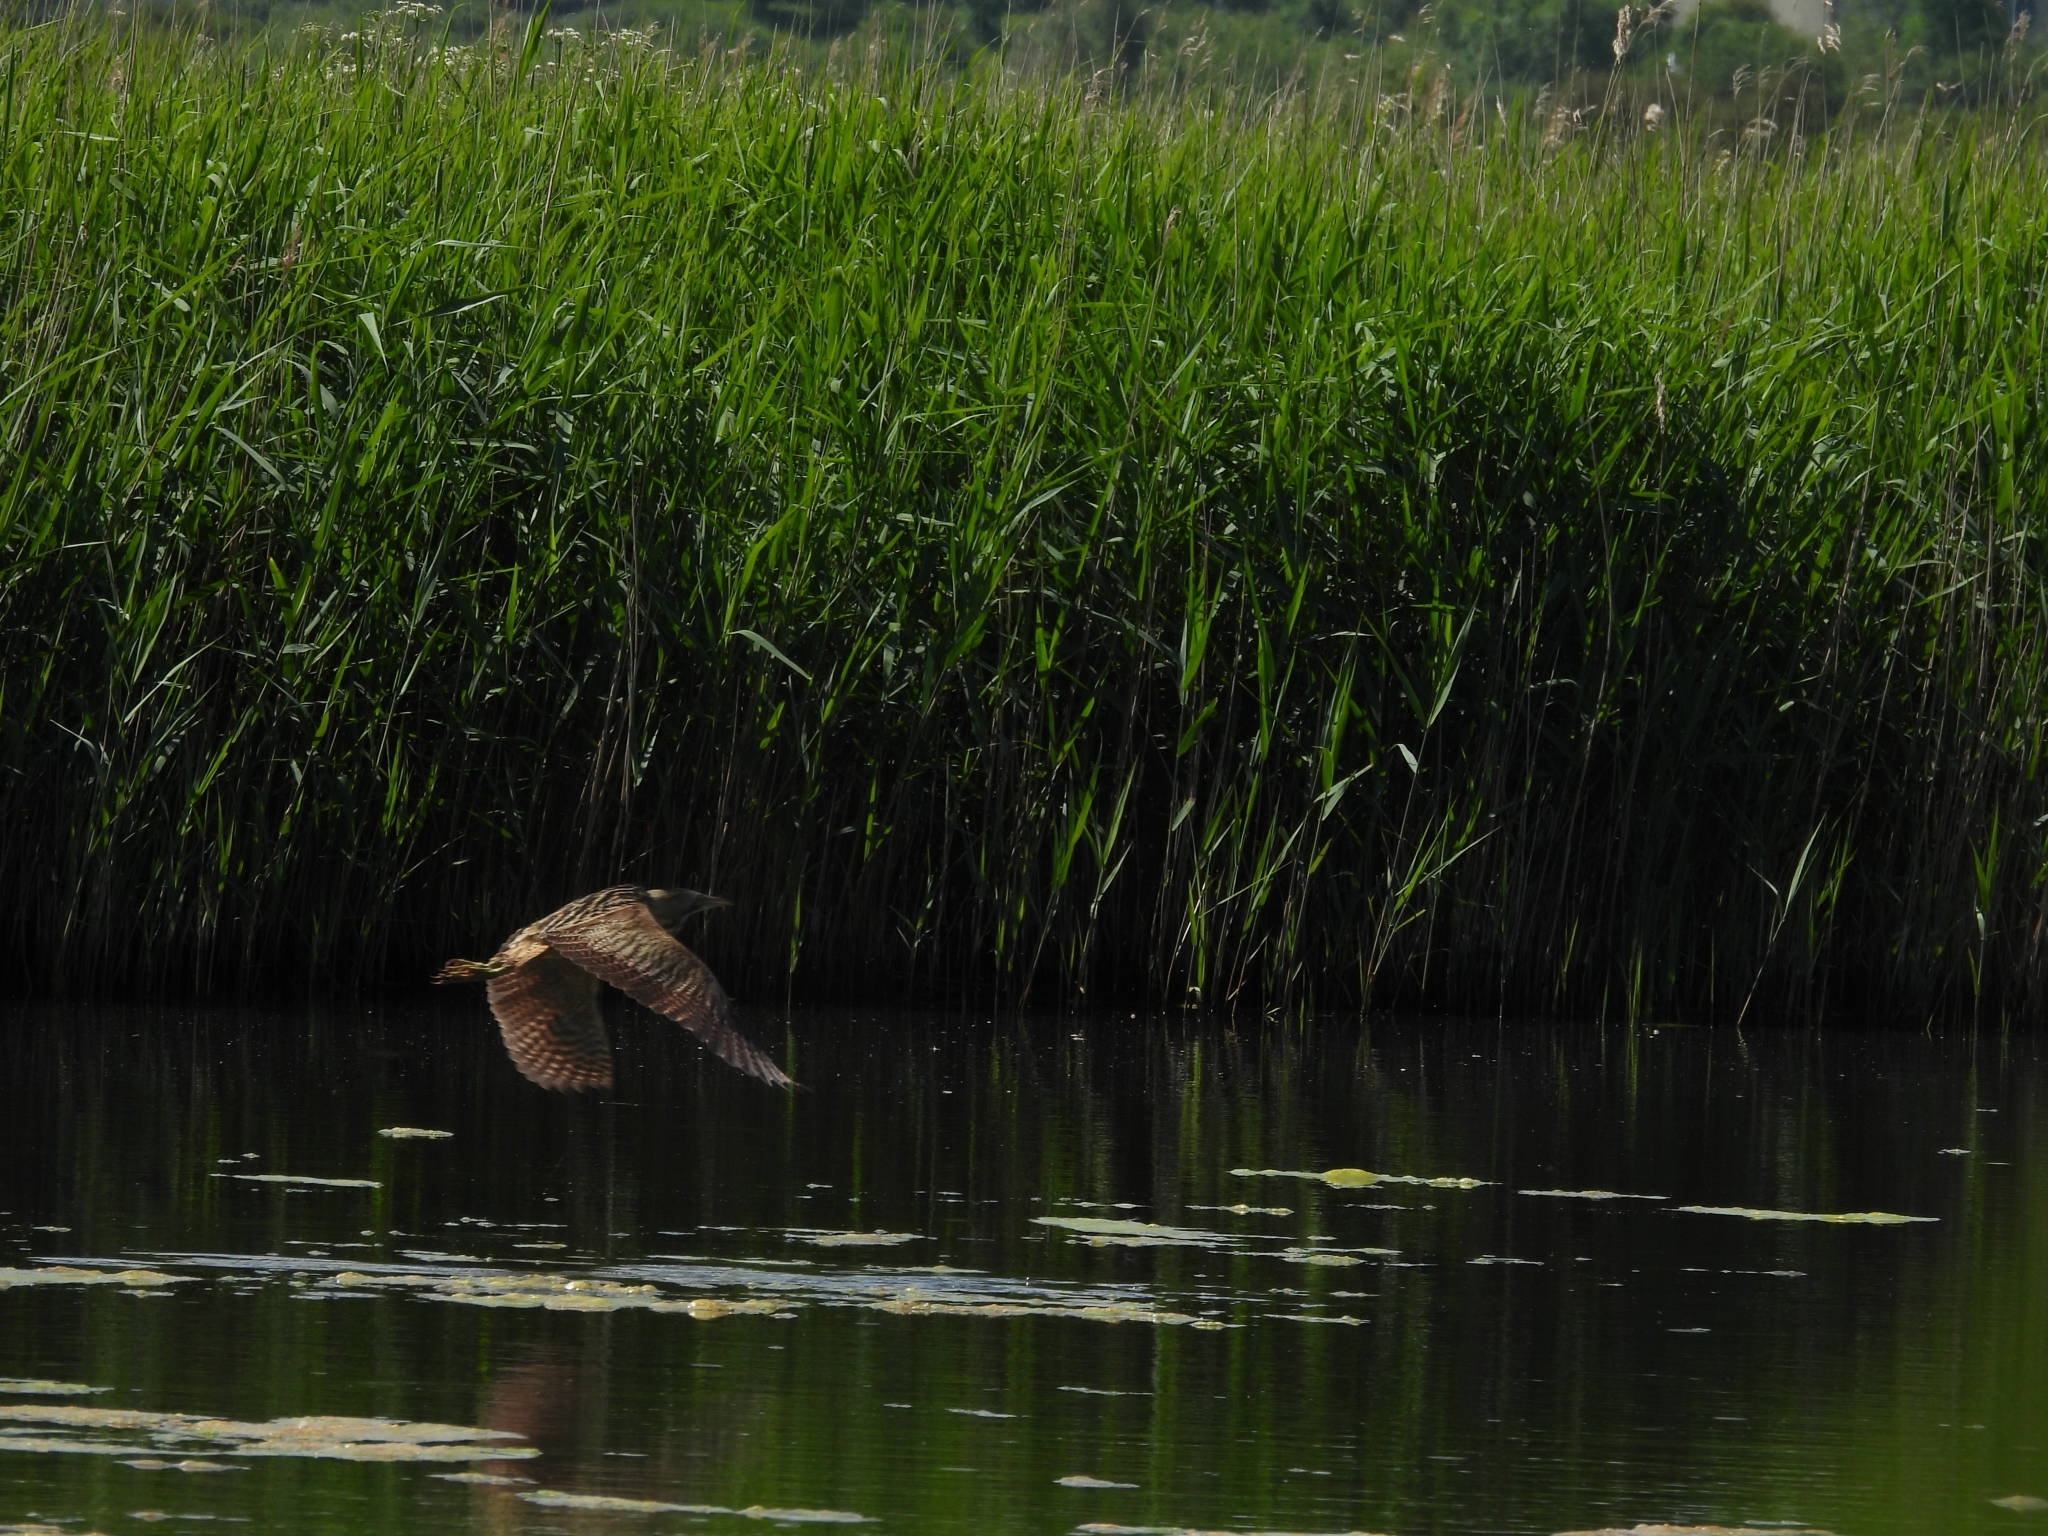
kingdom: Animalia
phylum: Chordata
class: Aves
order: Pelecaniformes
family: Ardeidae
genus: Botaurus
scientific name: Botaurus stellaris
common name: Eurasian bittern
